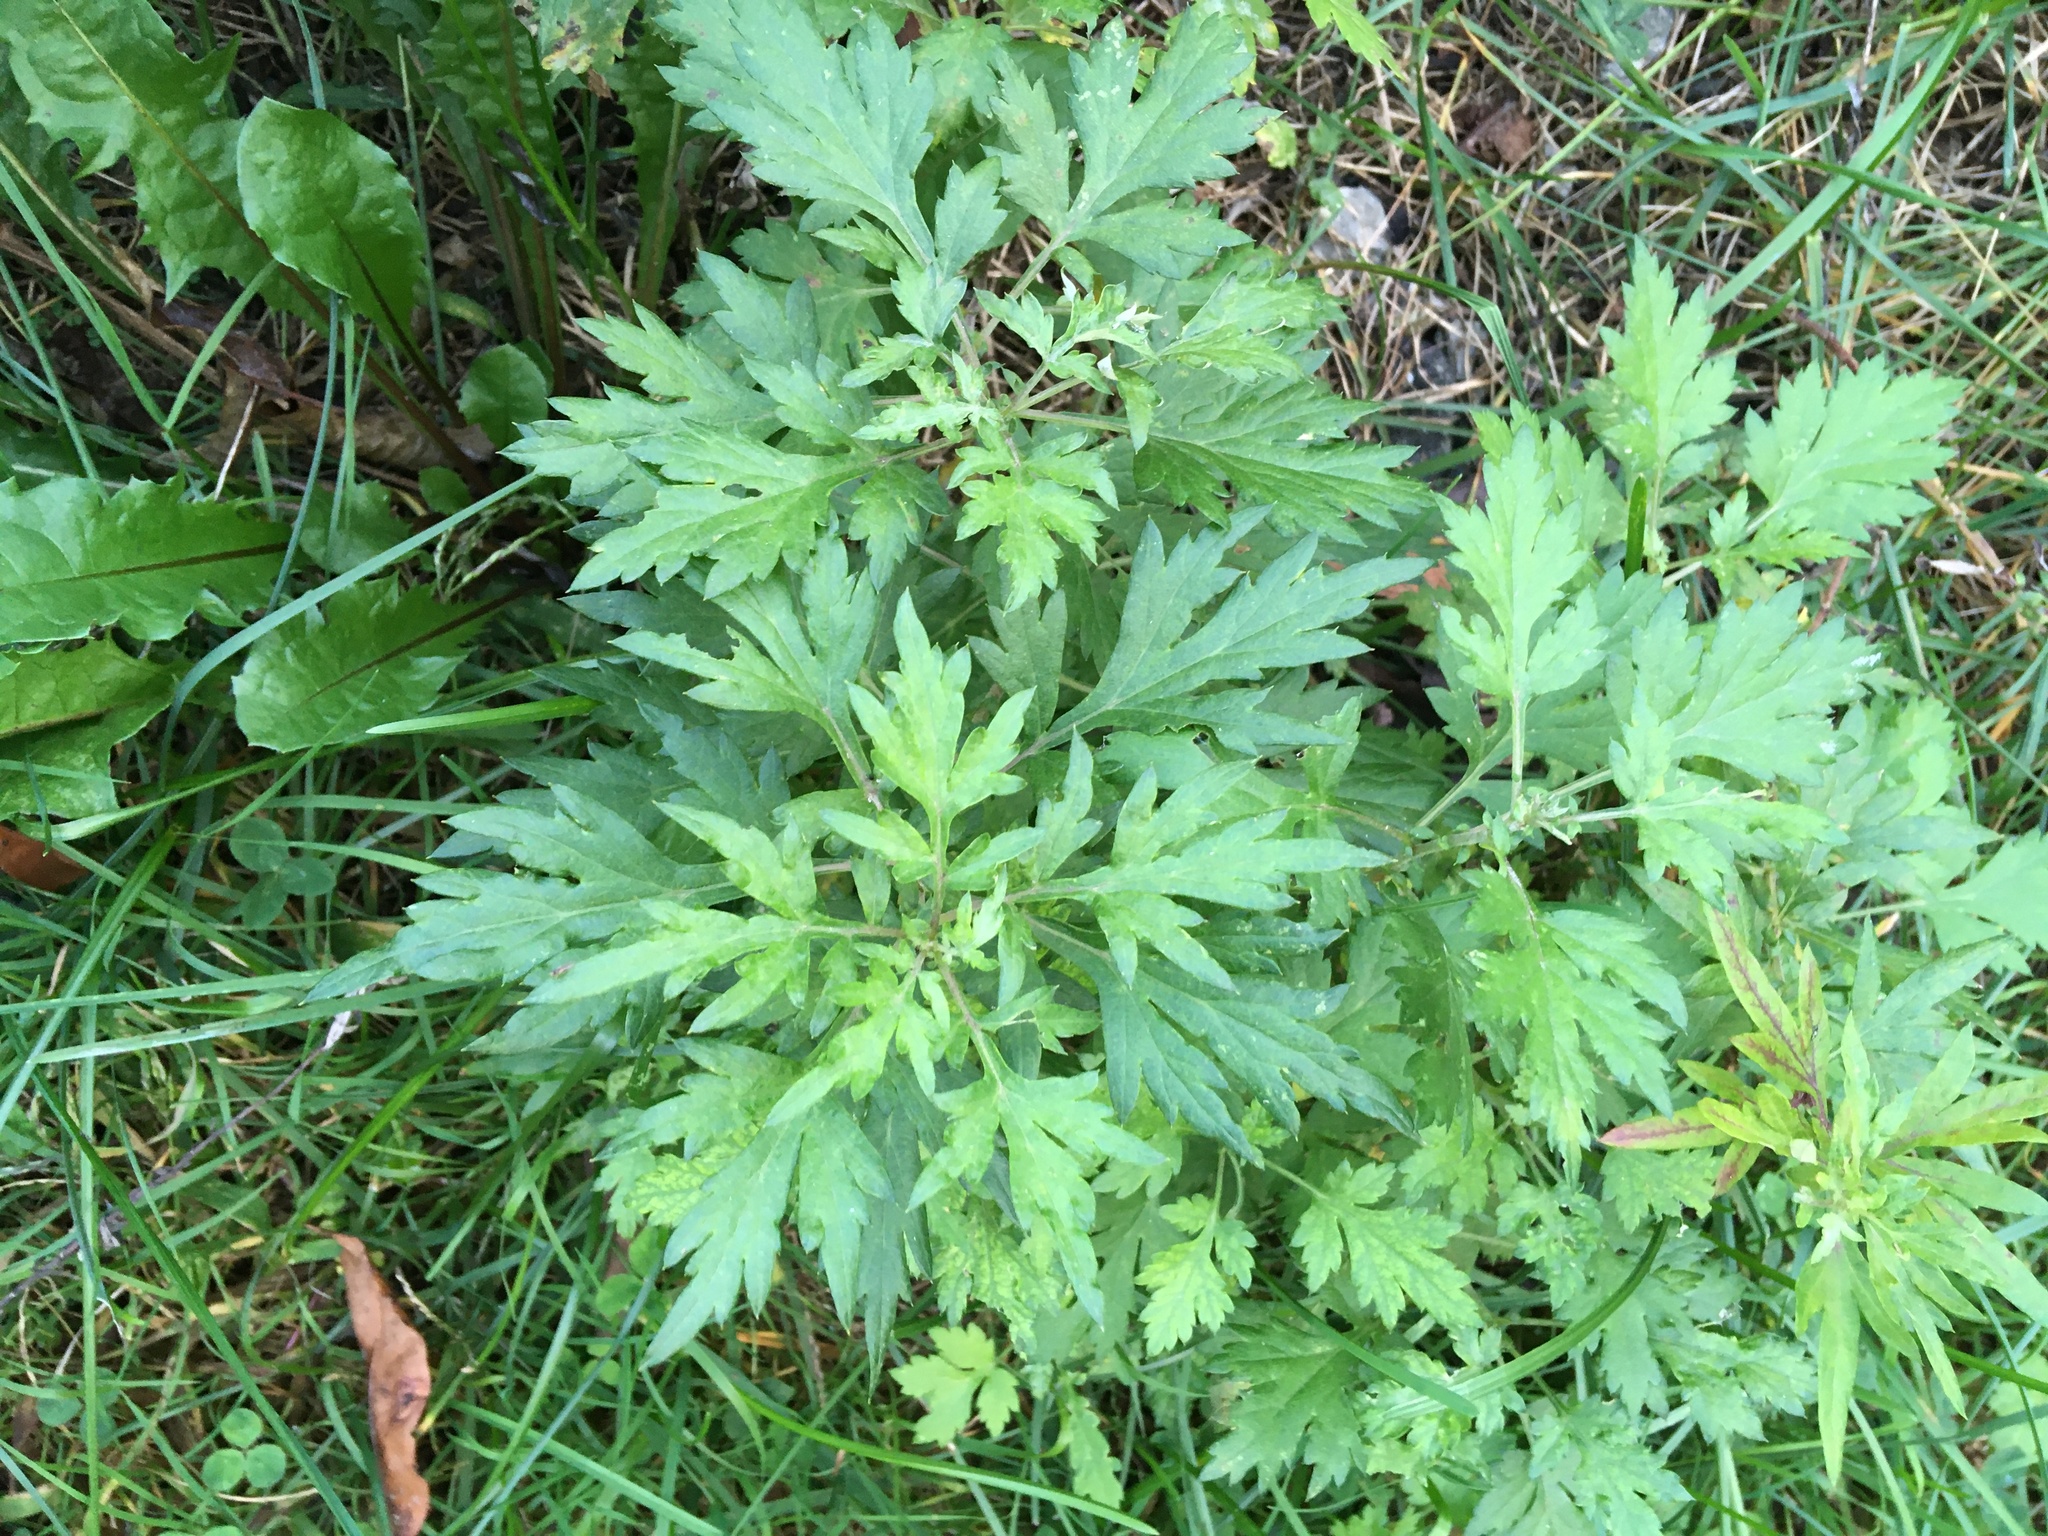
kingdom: Plantae
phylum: Tracheophyta
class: Magnoliopsida
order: Asterales
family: Asteraceae
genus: Artemisia
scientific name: Artemisia vulgaris
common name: Mugwort
